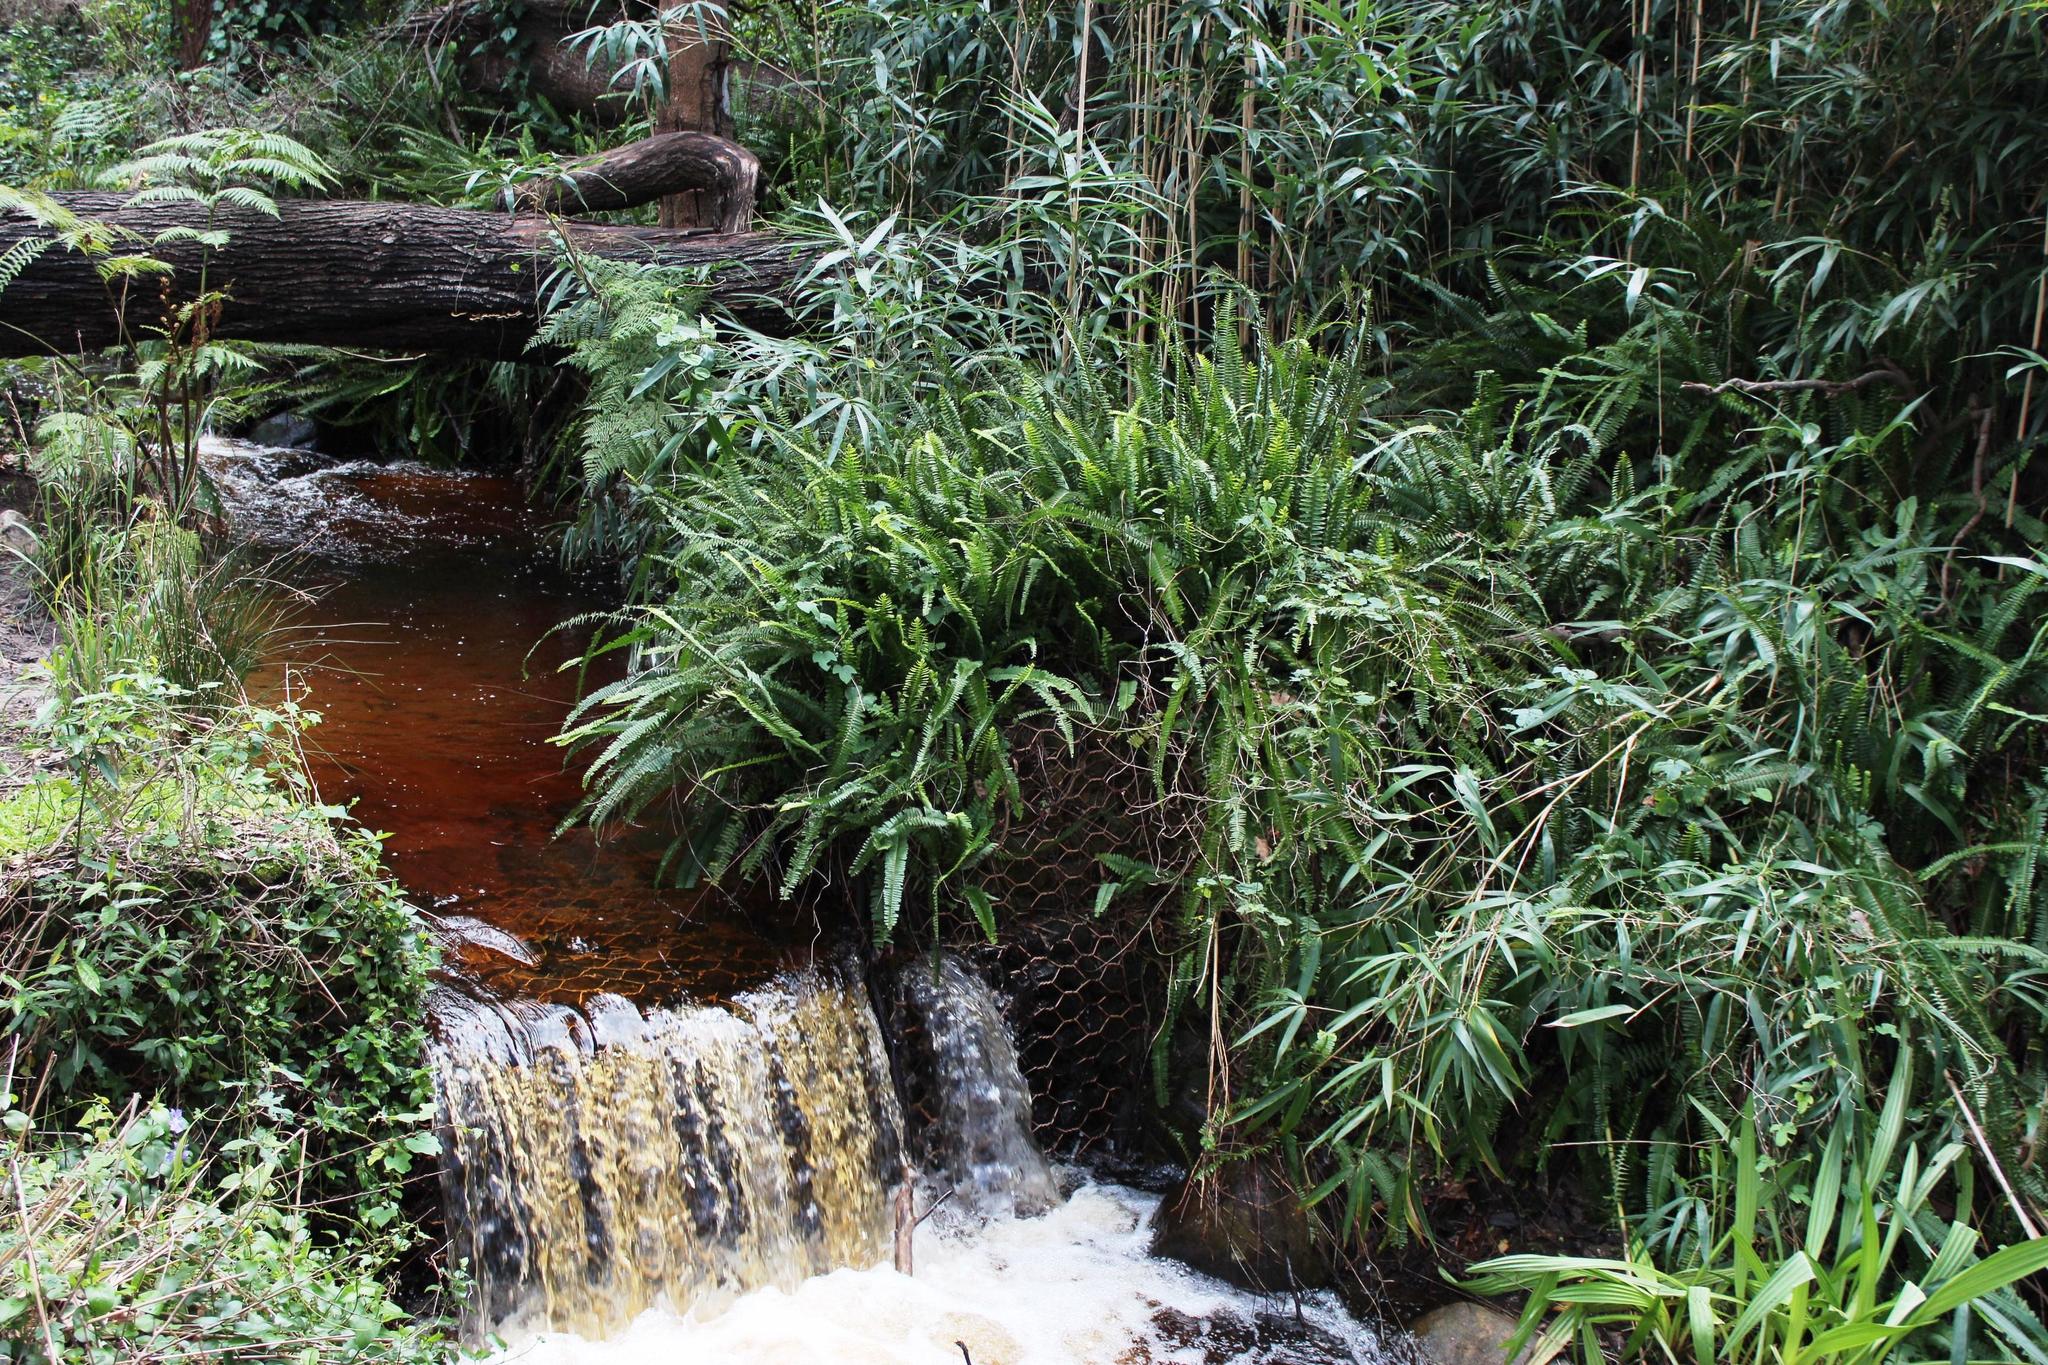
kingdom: Plantae
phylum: Tracheophyta
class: Polypodiopsida
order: Polypodiales
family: Nephrolepidaceae
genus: Nephrolepis
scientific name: Nephrolepis cordifolia
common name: Narrow swordfern
